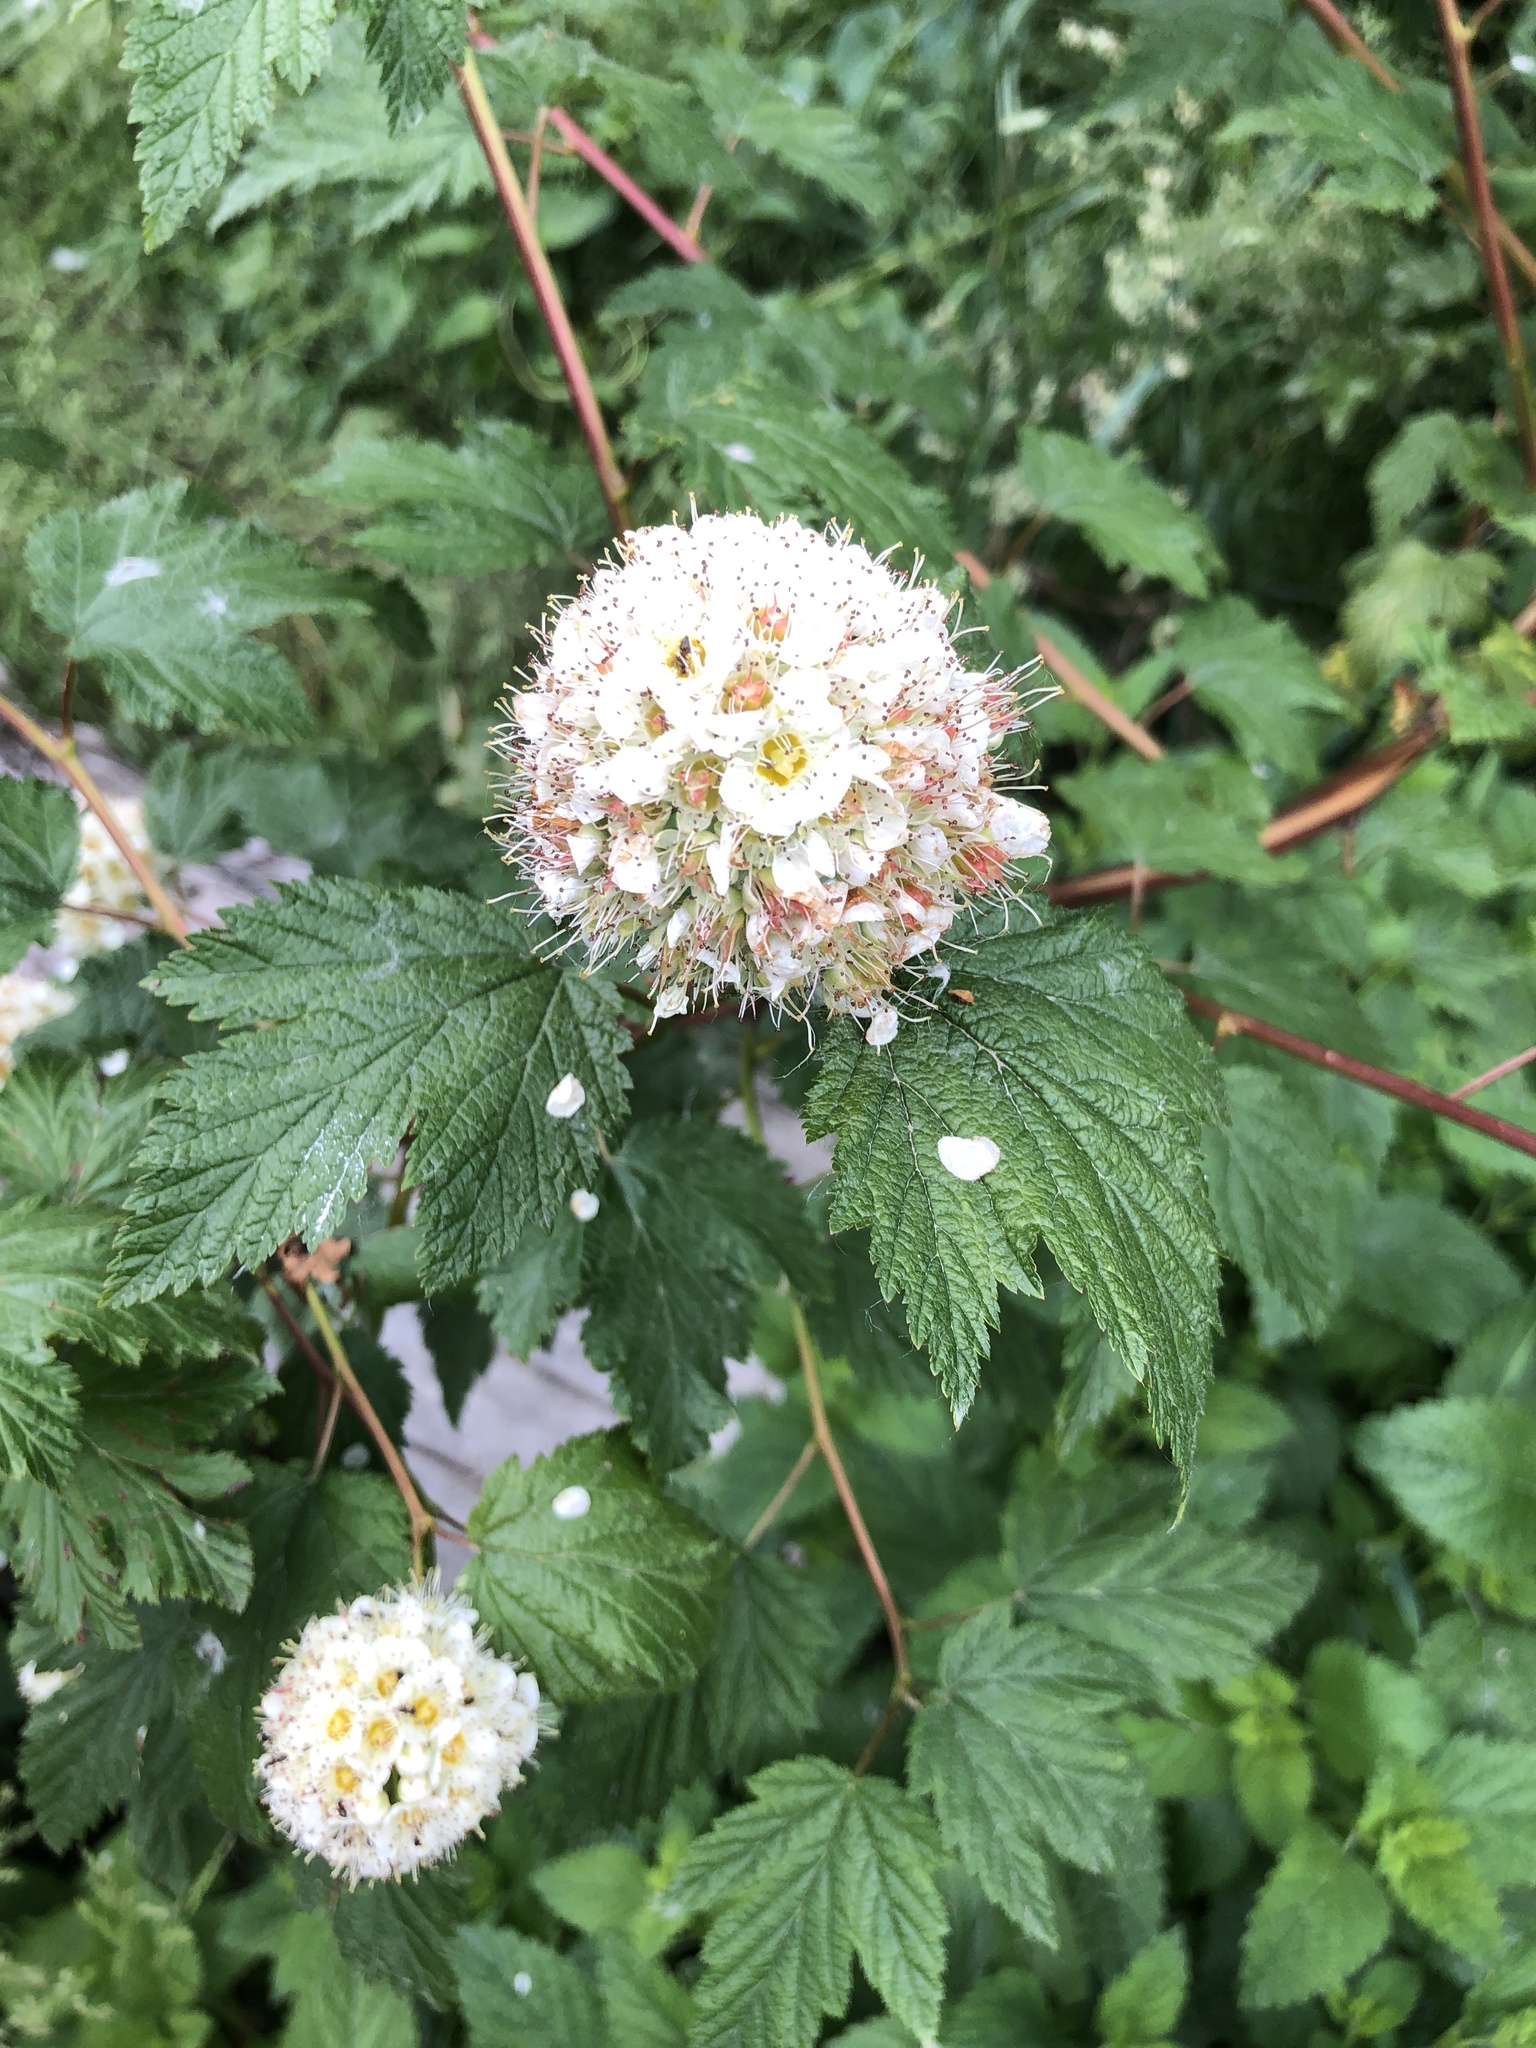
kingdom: Plantae
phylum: Tracheophyta
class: Magnoliopsida
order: Rosales
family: Rosaceae
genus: Physocarpus
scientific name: Physocarpus capitatus
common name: Pacific ninebark
